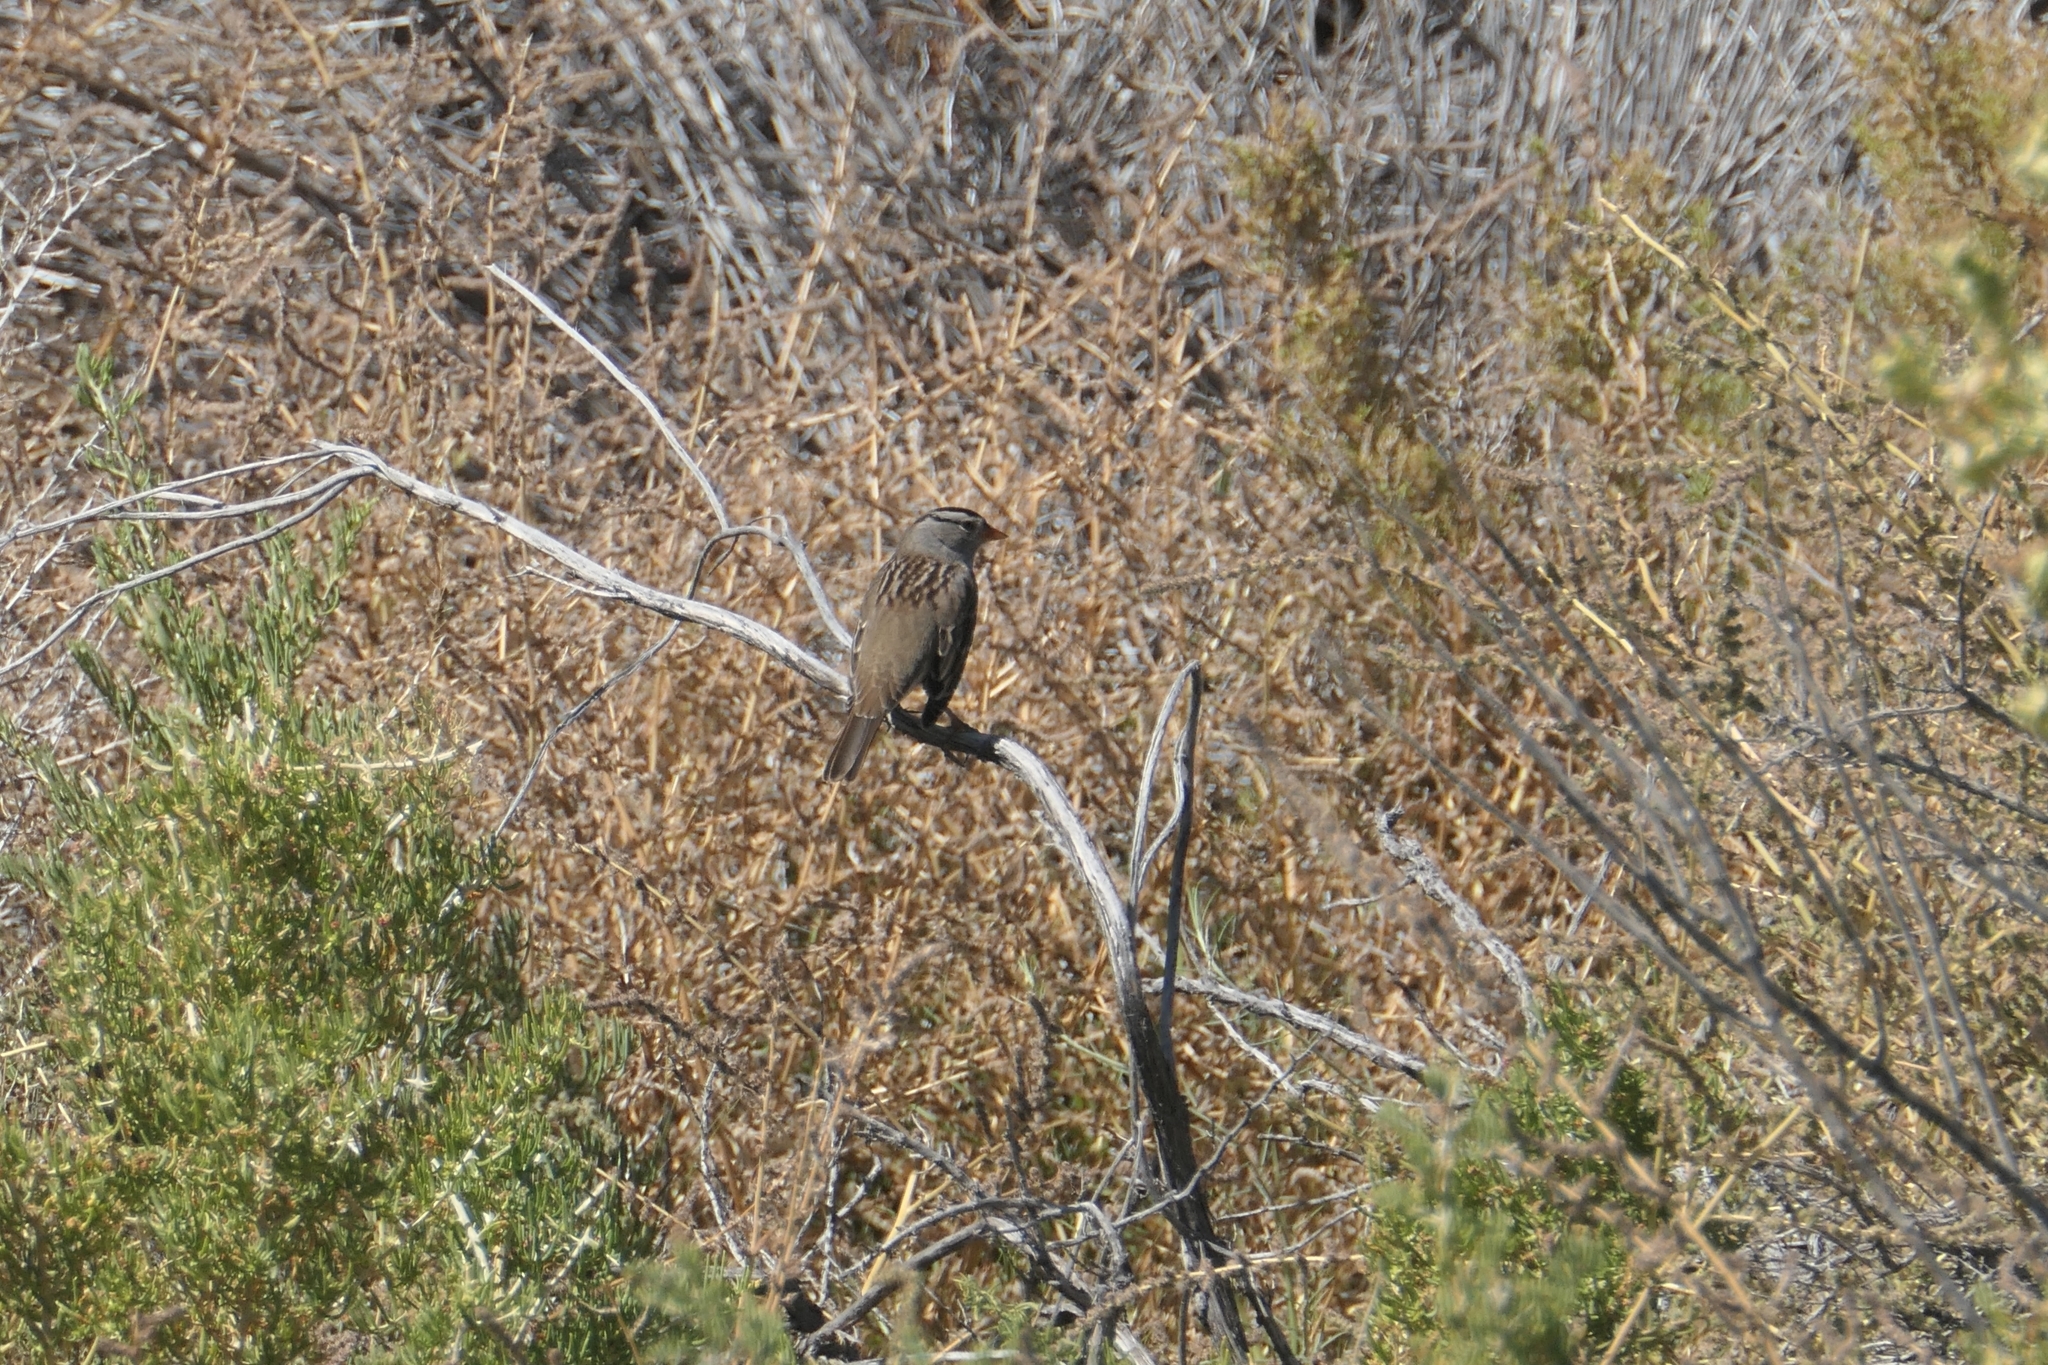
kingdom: Animalia
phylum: Chordata
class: Aves
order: Passeriformes
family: Passerellidae
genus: Zonotrichia
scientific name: Zonotrichia leucophrys
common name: White-crowned sparrow
